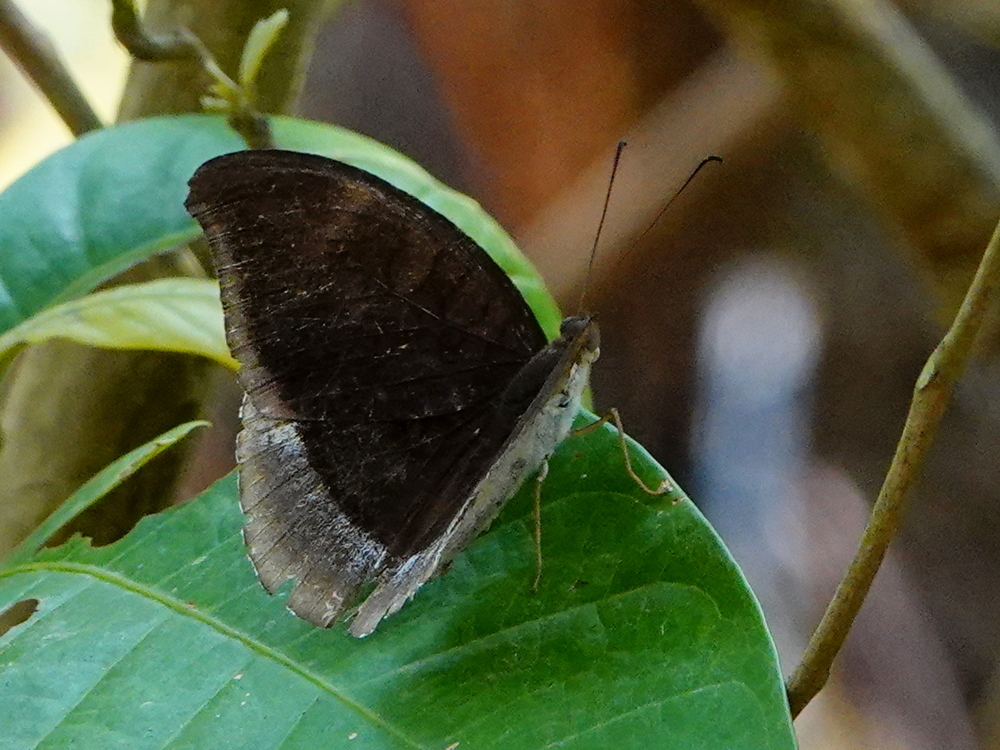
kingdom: Animalia
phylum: Arthropoda
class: Insecta
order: Lepidoptera
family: Nymphalidae
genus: Tanaecia
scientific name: Tanaecia lepidea
